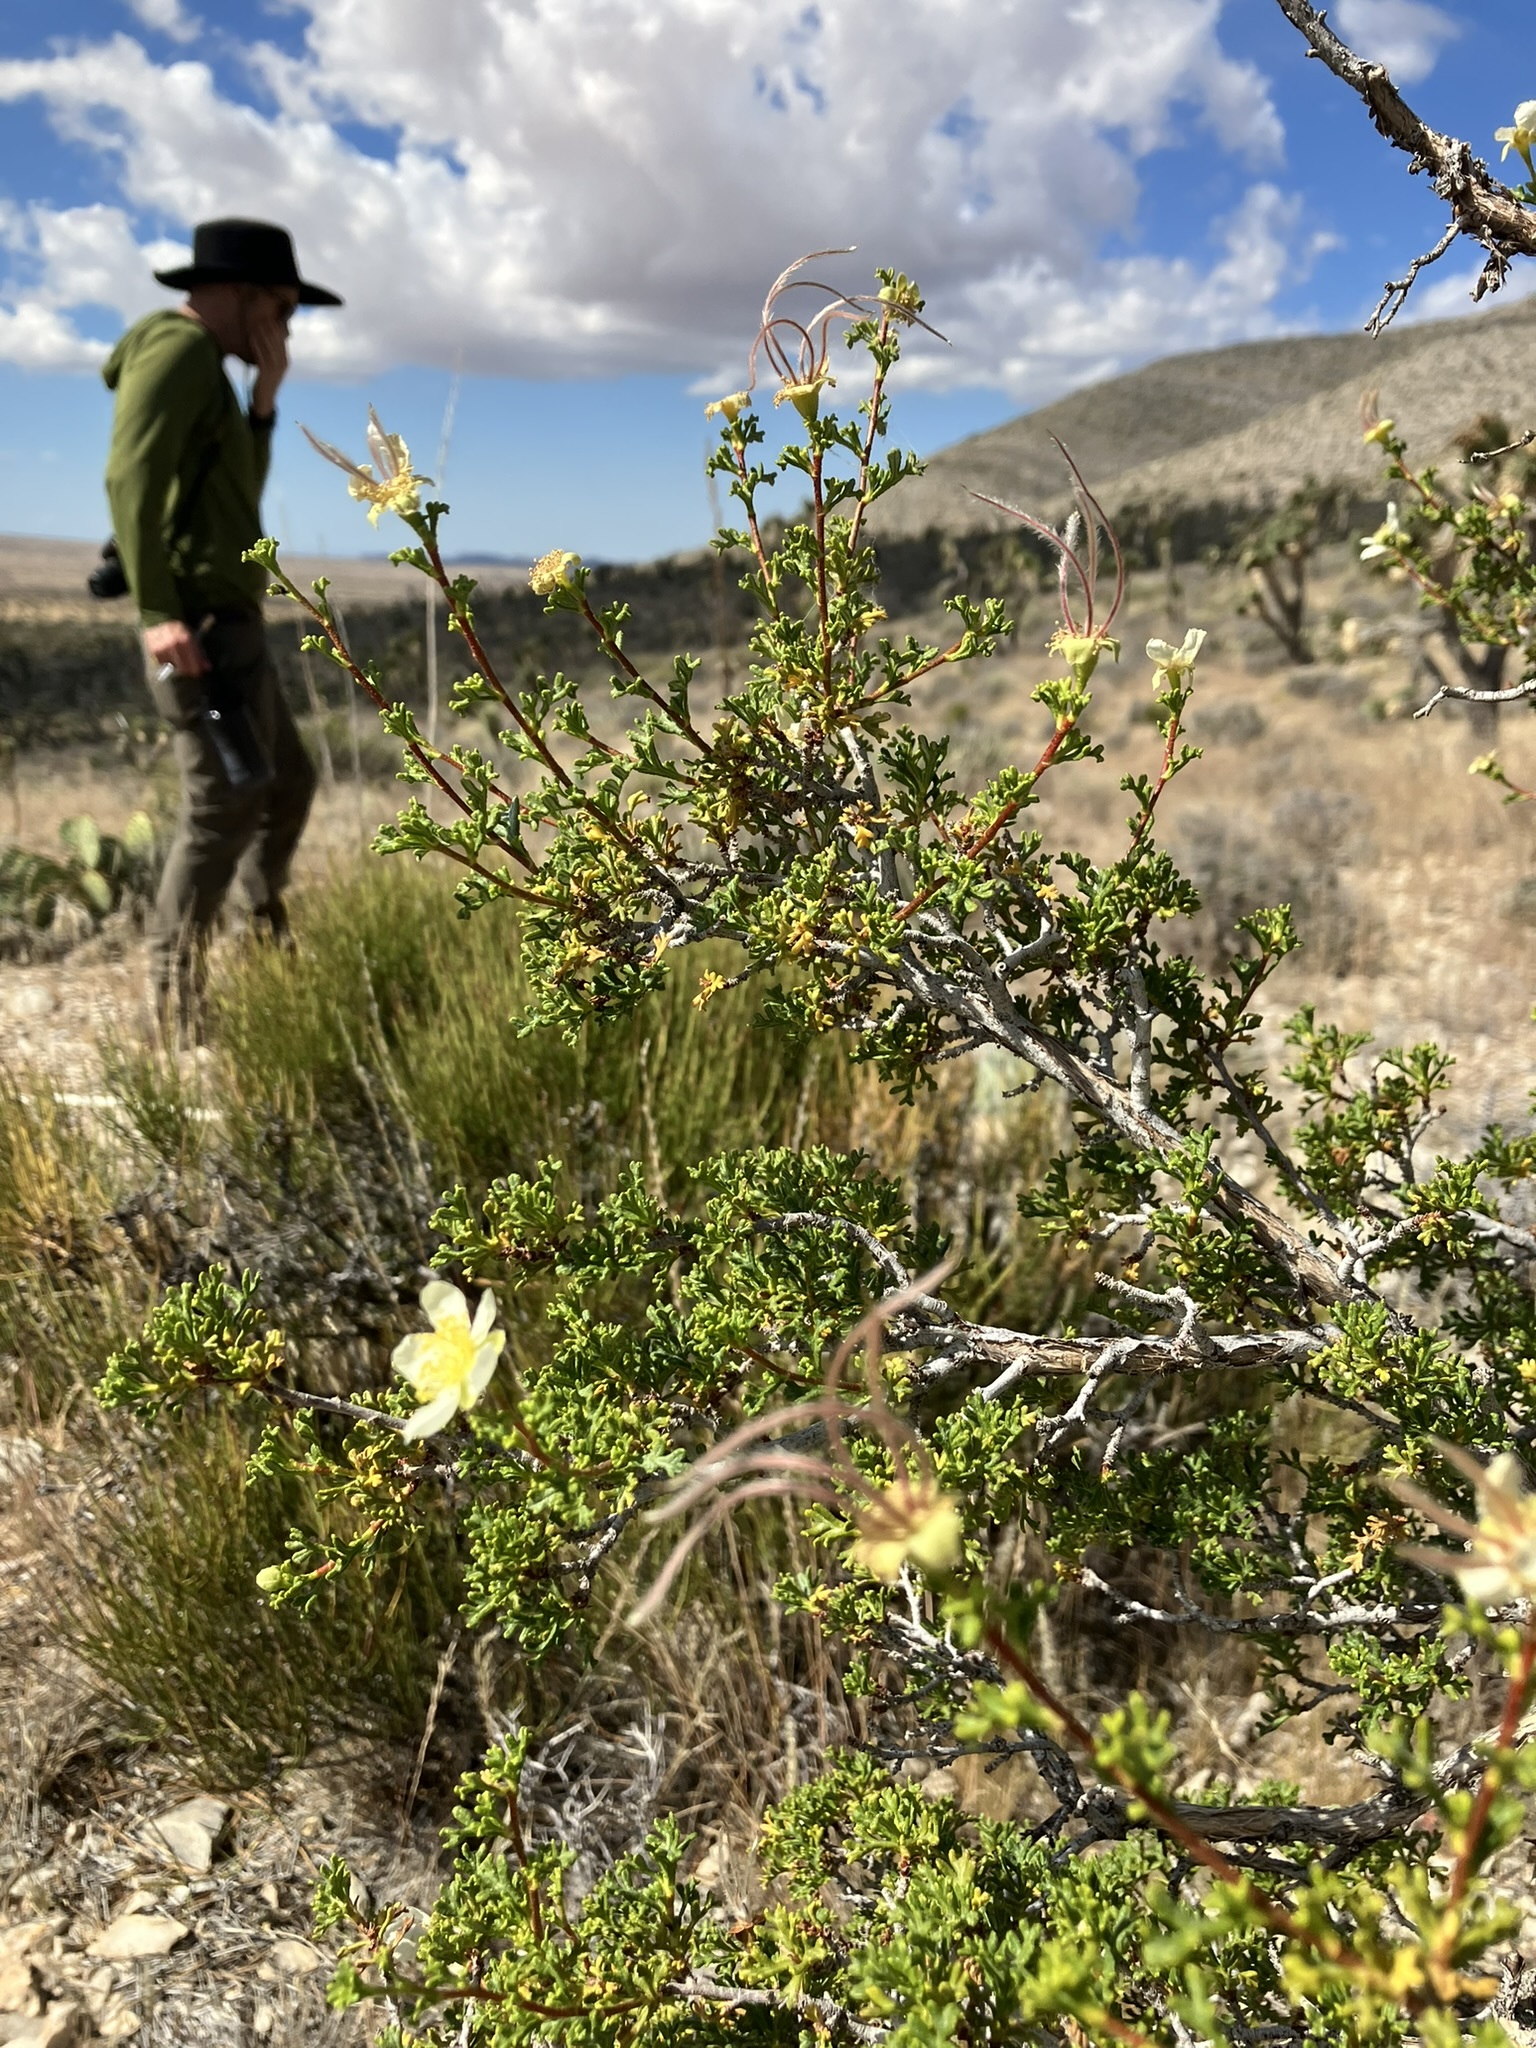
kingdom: Plantae
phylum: Tracheophyta
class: Magnoliopsida
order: Rosales
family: Rosaceae
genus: Purshia
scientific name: Purshia stansburiana
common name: Stansbury's cliffrose
